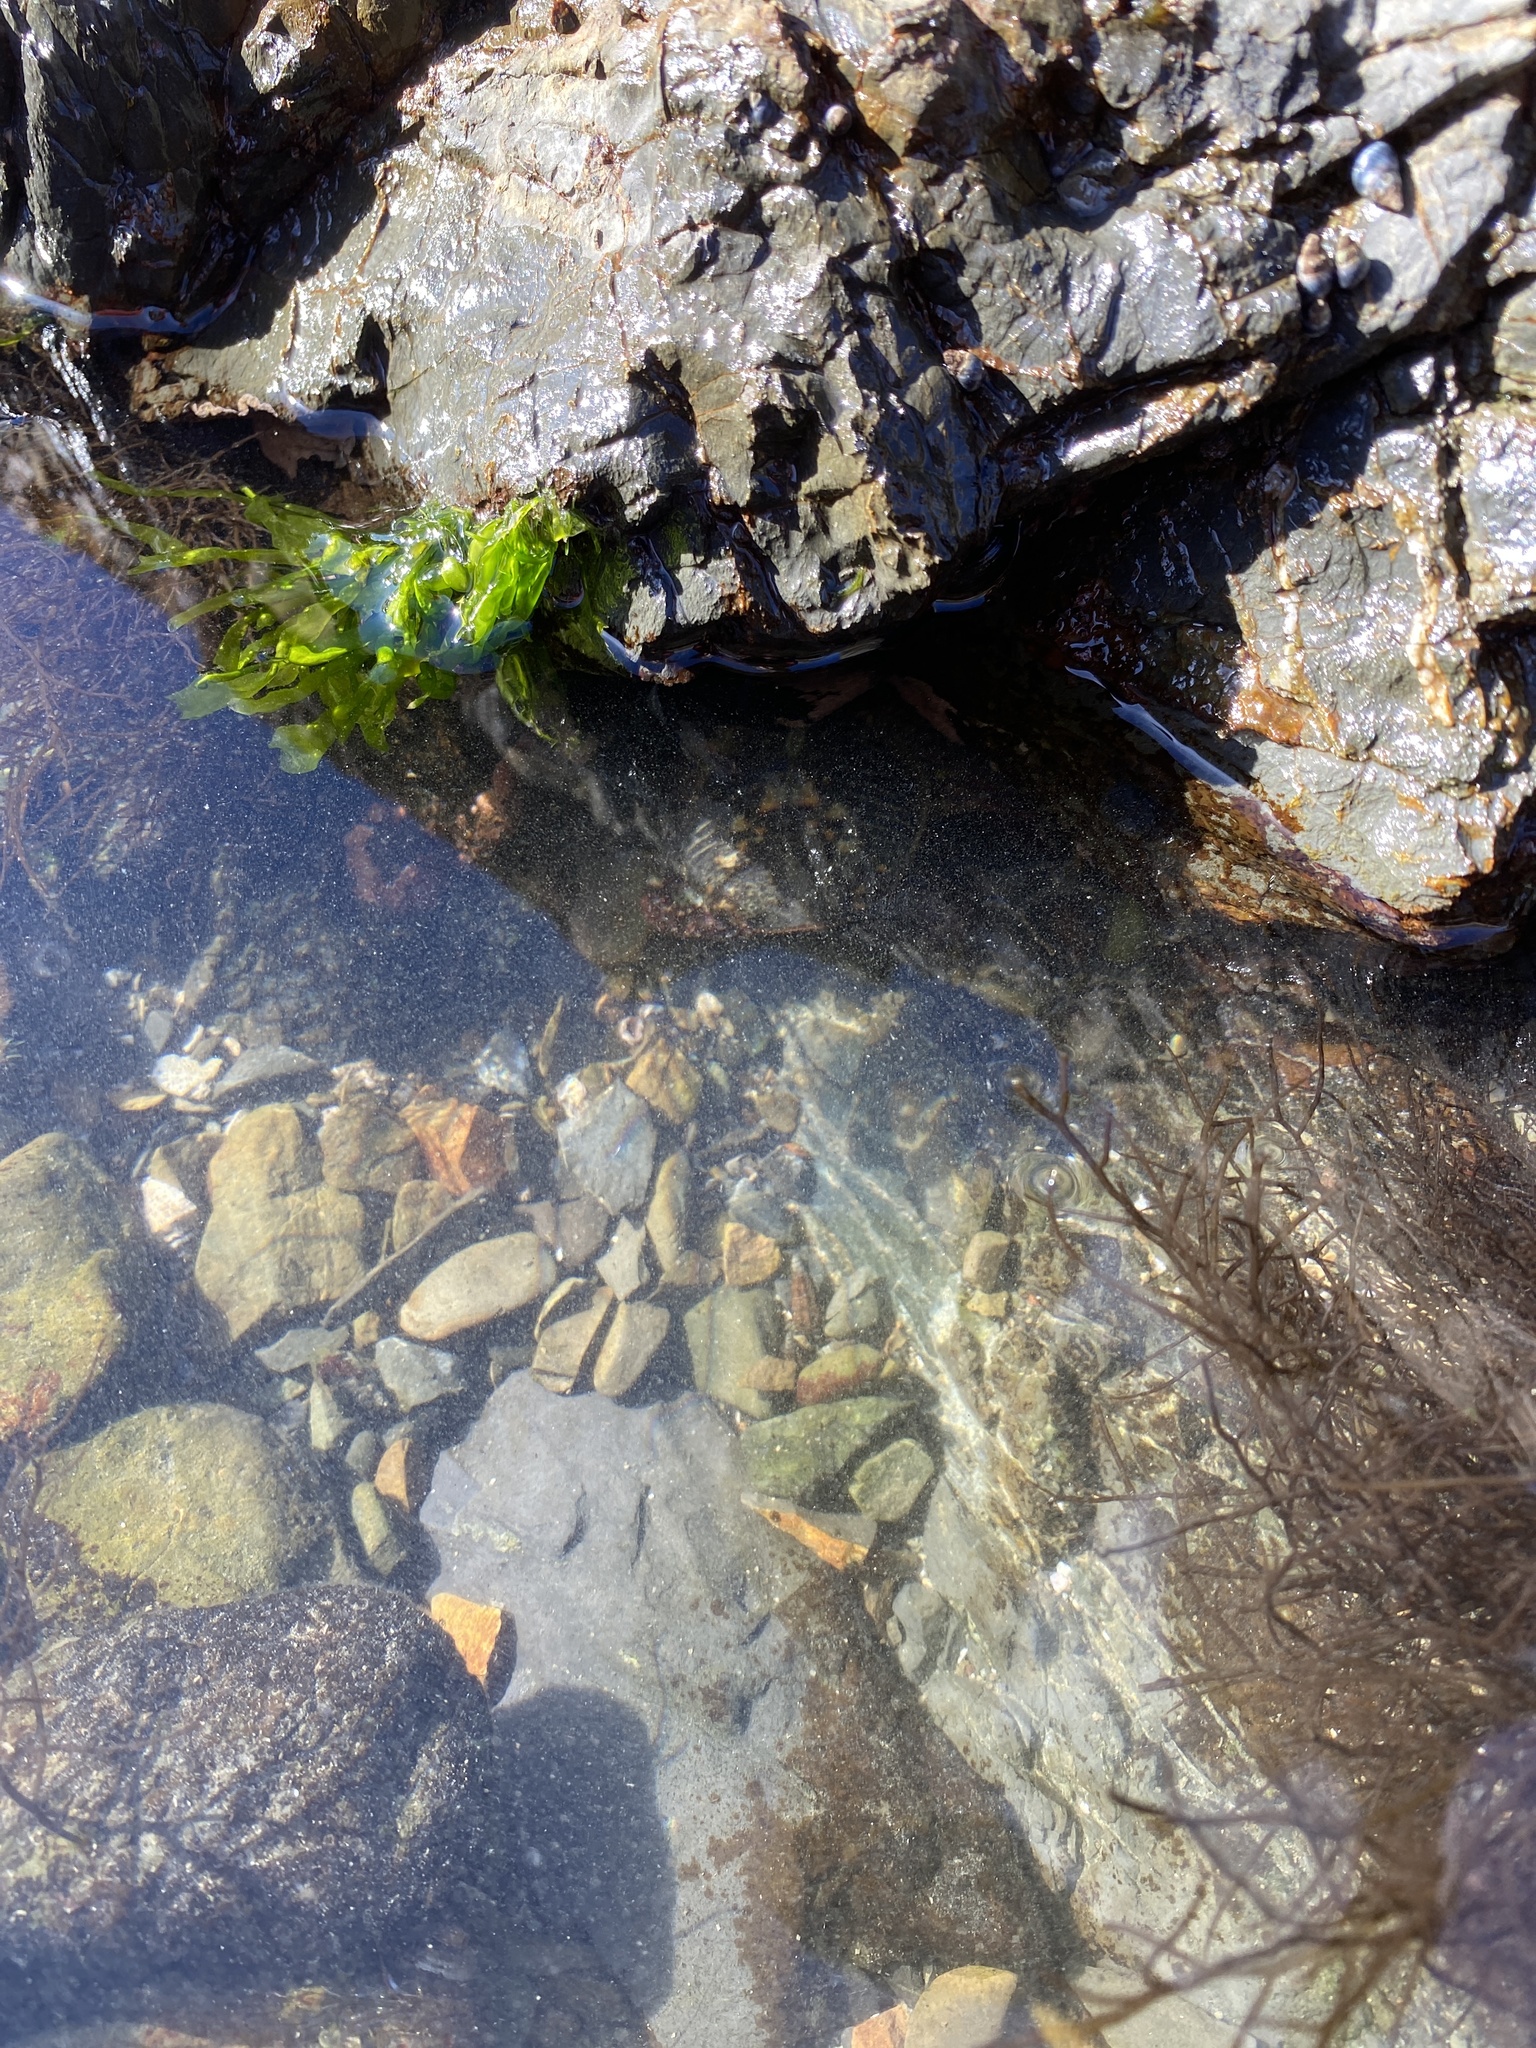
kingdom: Animalia
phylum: Arthropoda
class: Malacostraca
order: Decapoda
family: Grapsidae
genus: Leptograpsus
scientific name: Leptograpsus variegatus
